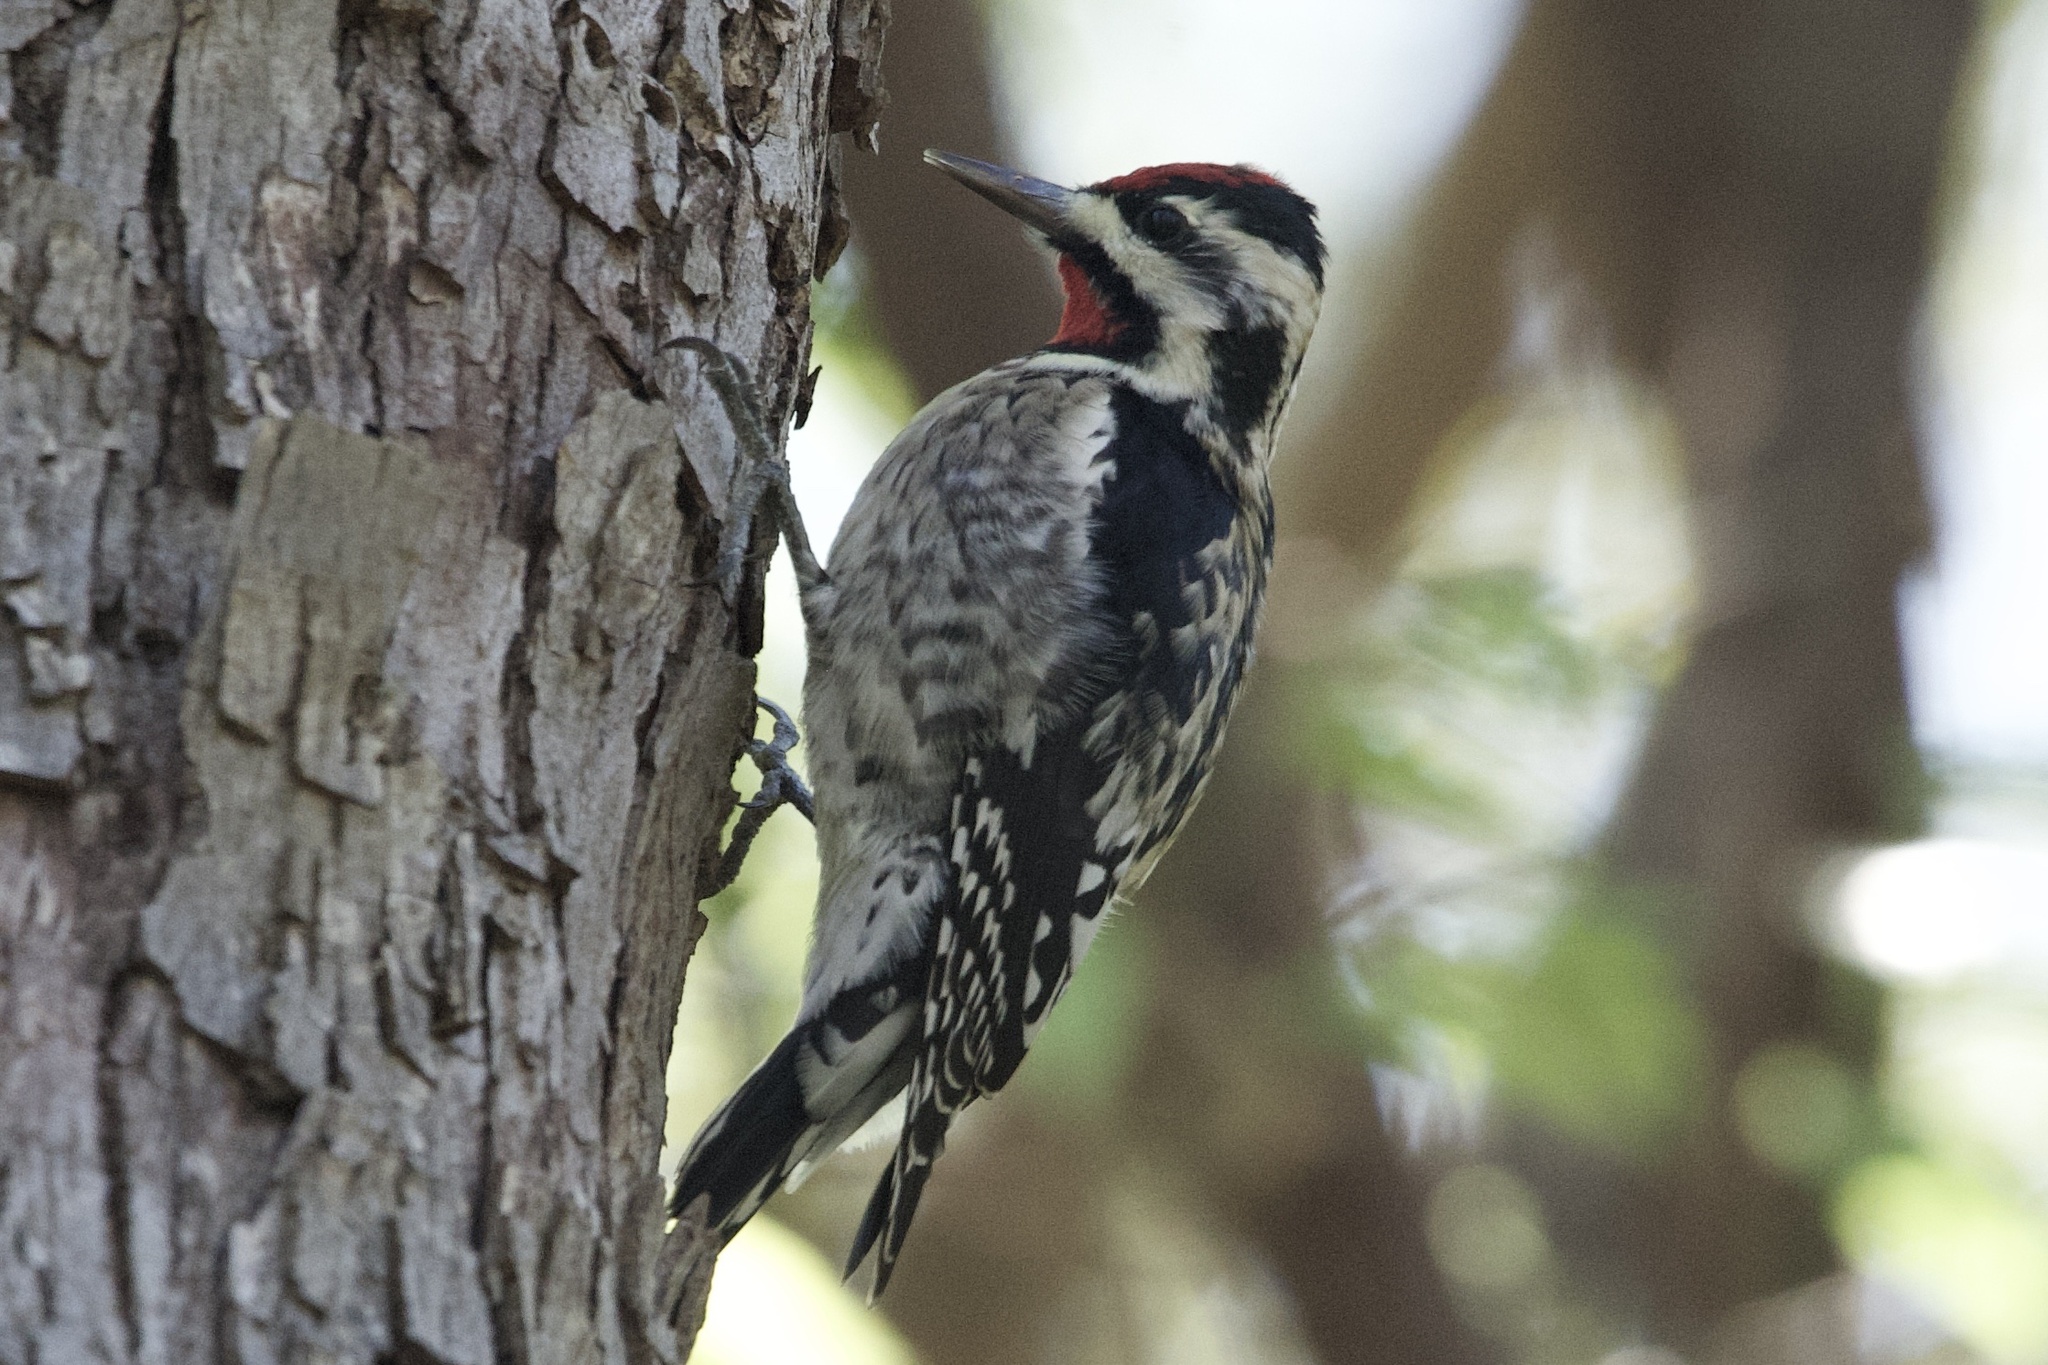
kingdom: Animalia
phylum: Chordata
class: Aves
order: Piciformes
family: Picidae
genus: Sphyrapicus
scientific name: Sphyrapicus varius
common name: Yellow-bellied sapsucker
